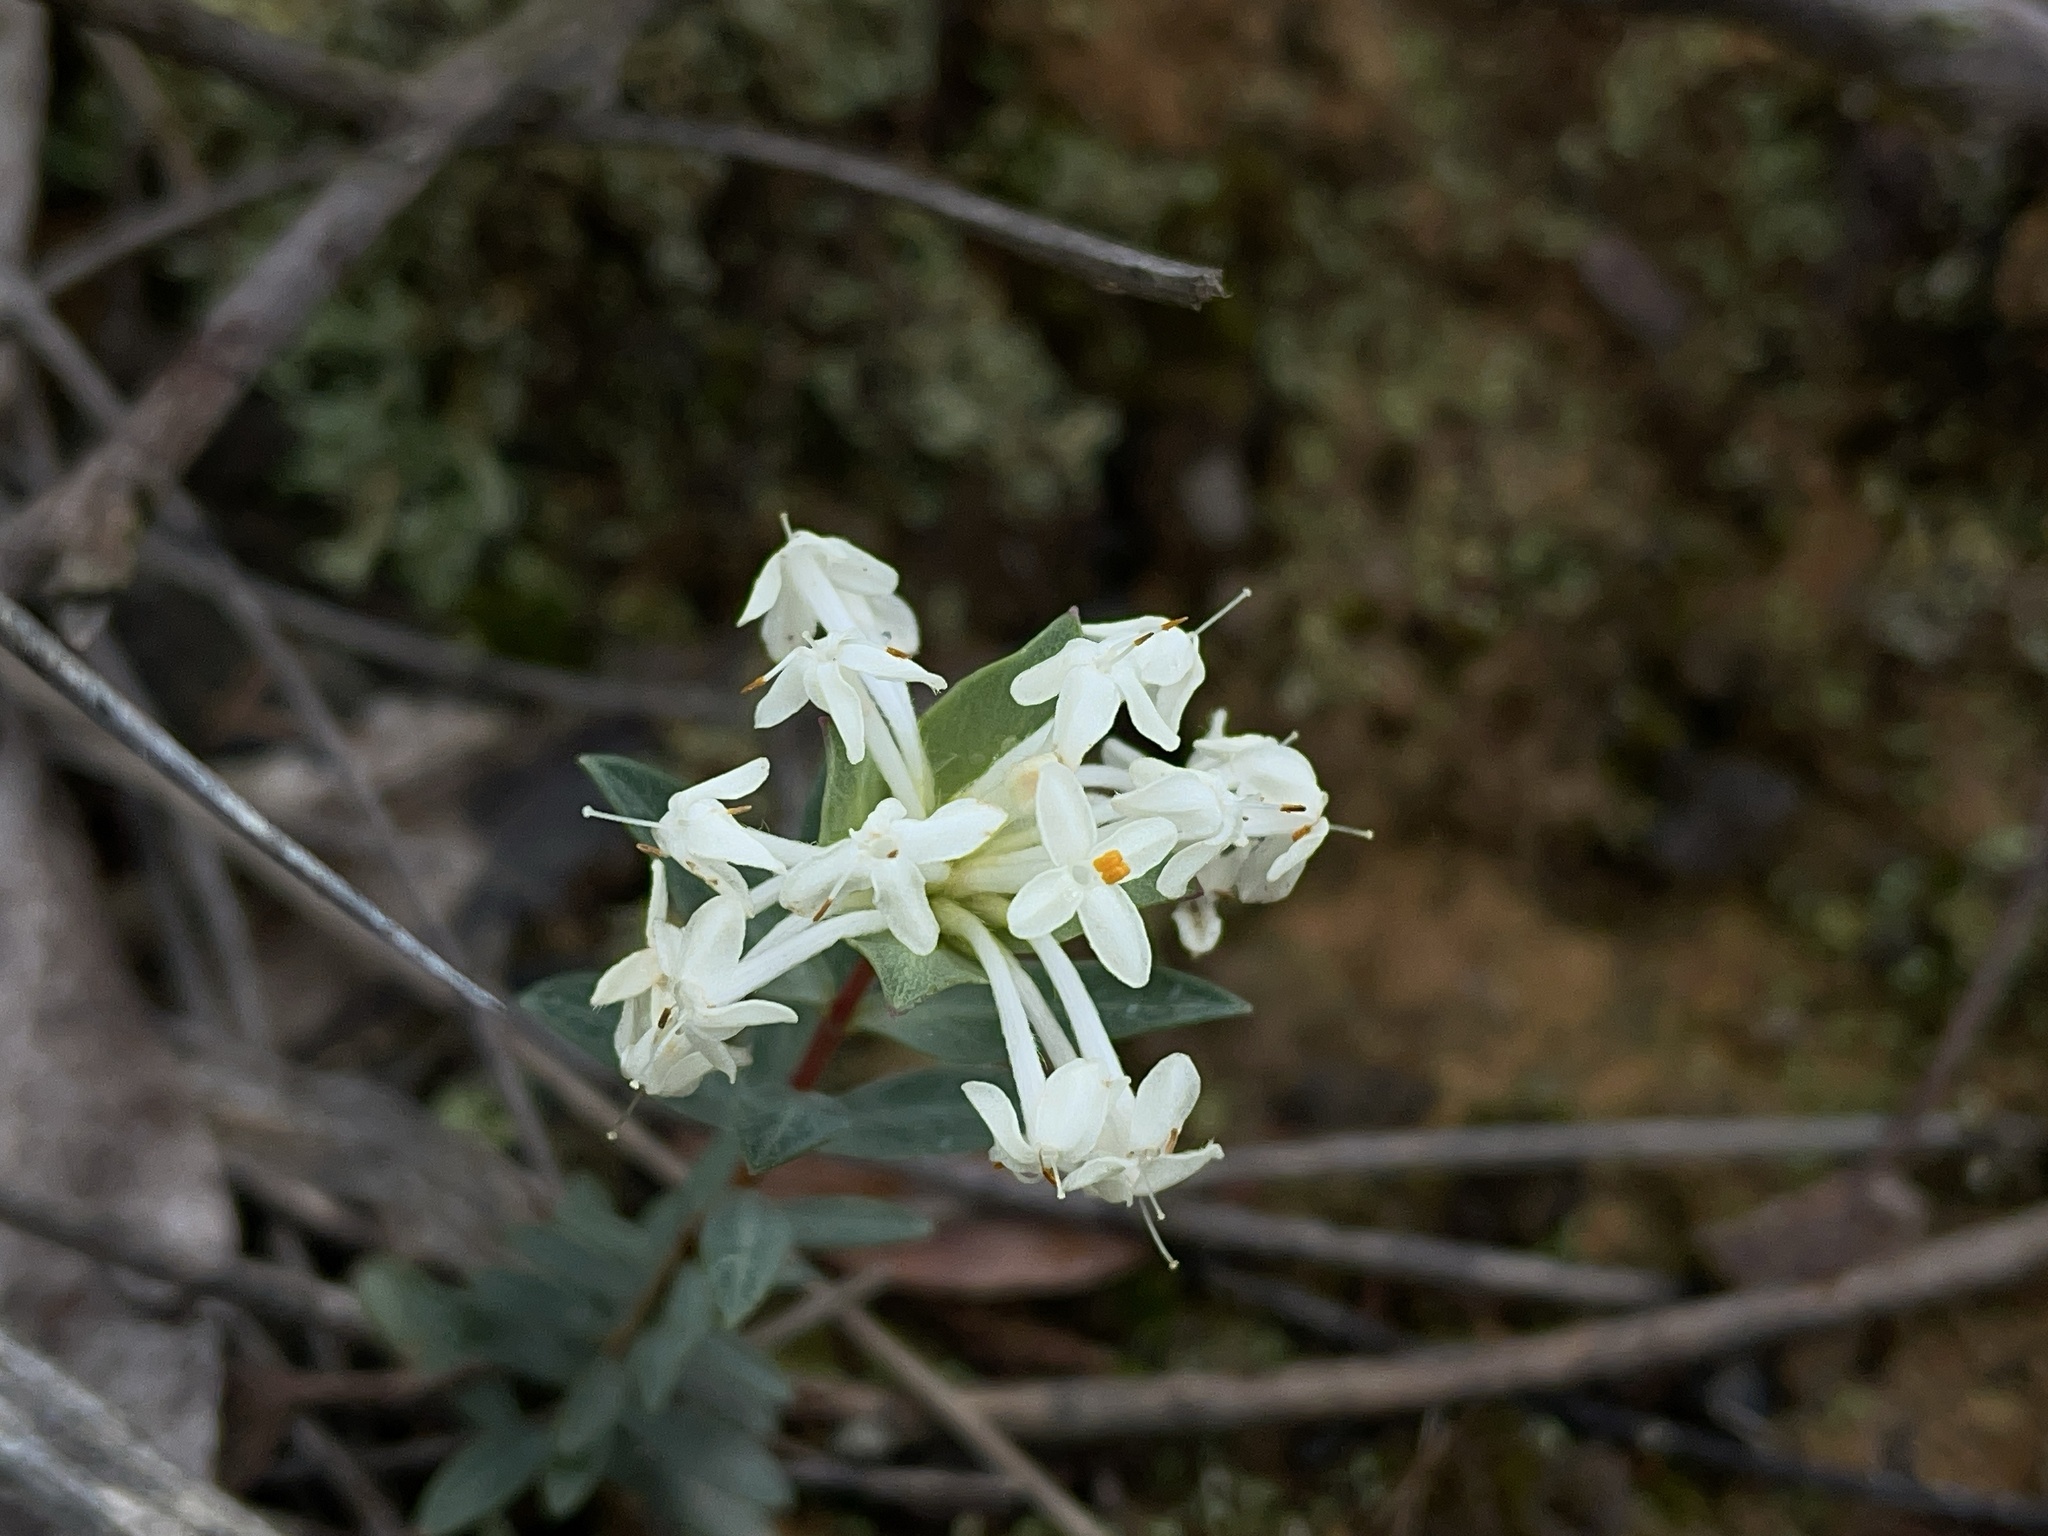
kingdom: Plantae
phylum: Tracheophyta
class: Magnoliopsida
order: Malvales
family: Thymelaeaceae
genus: Pimelea
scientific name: Pimelea linifolia
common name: Queen-of-the-bush
